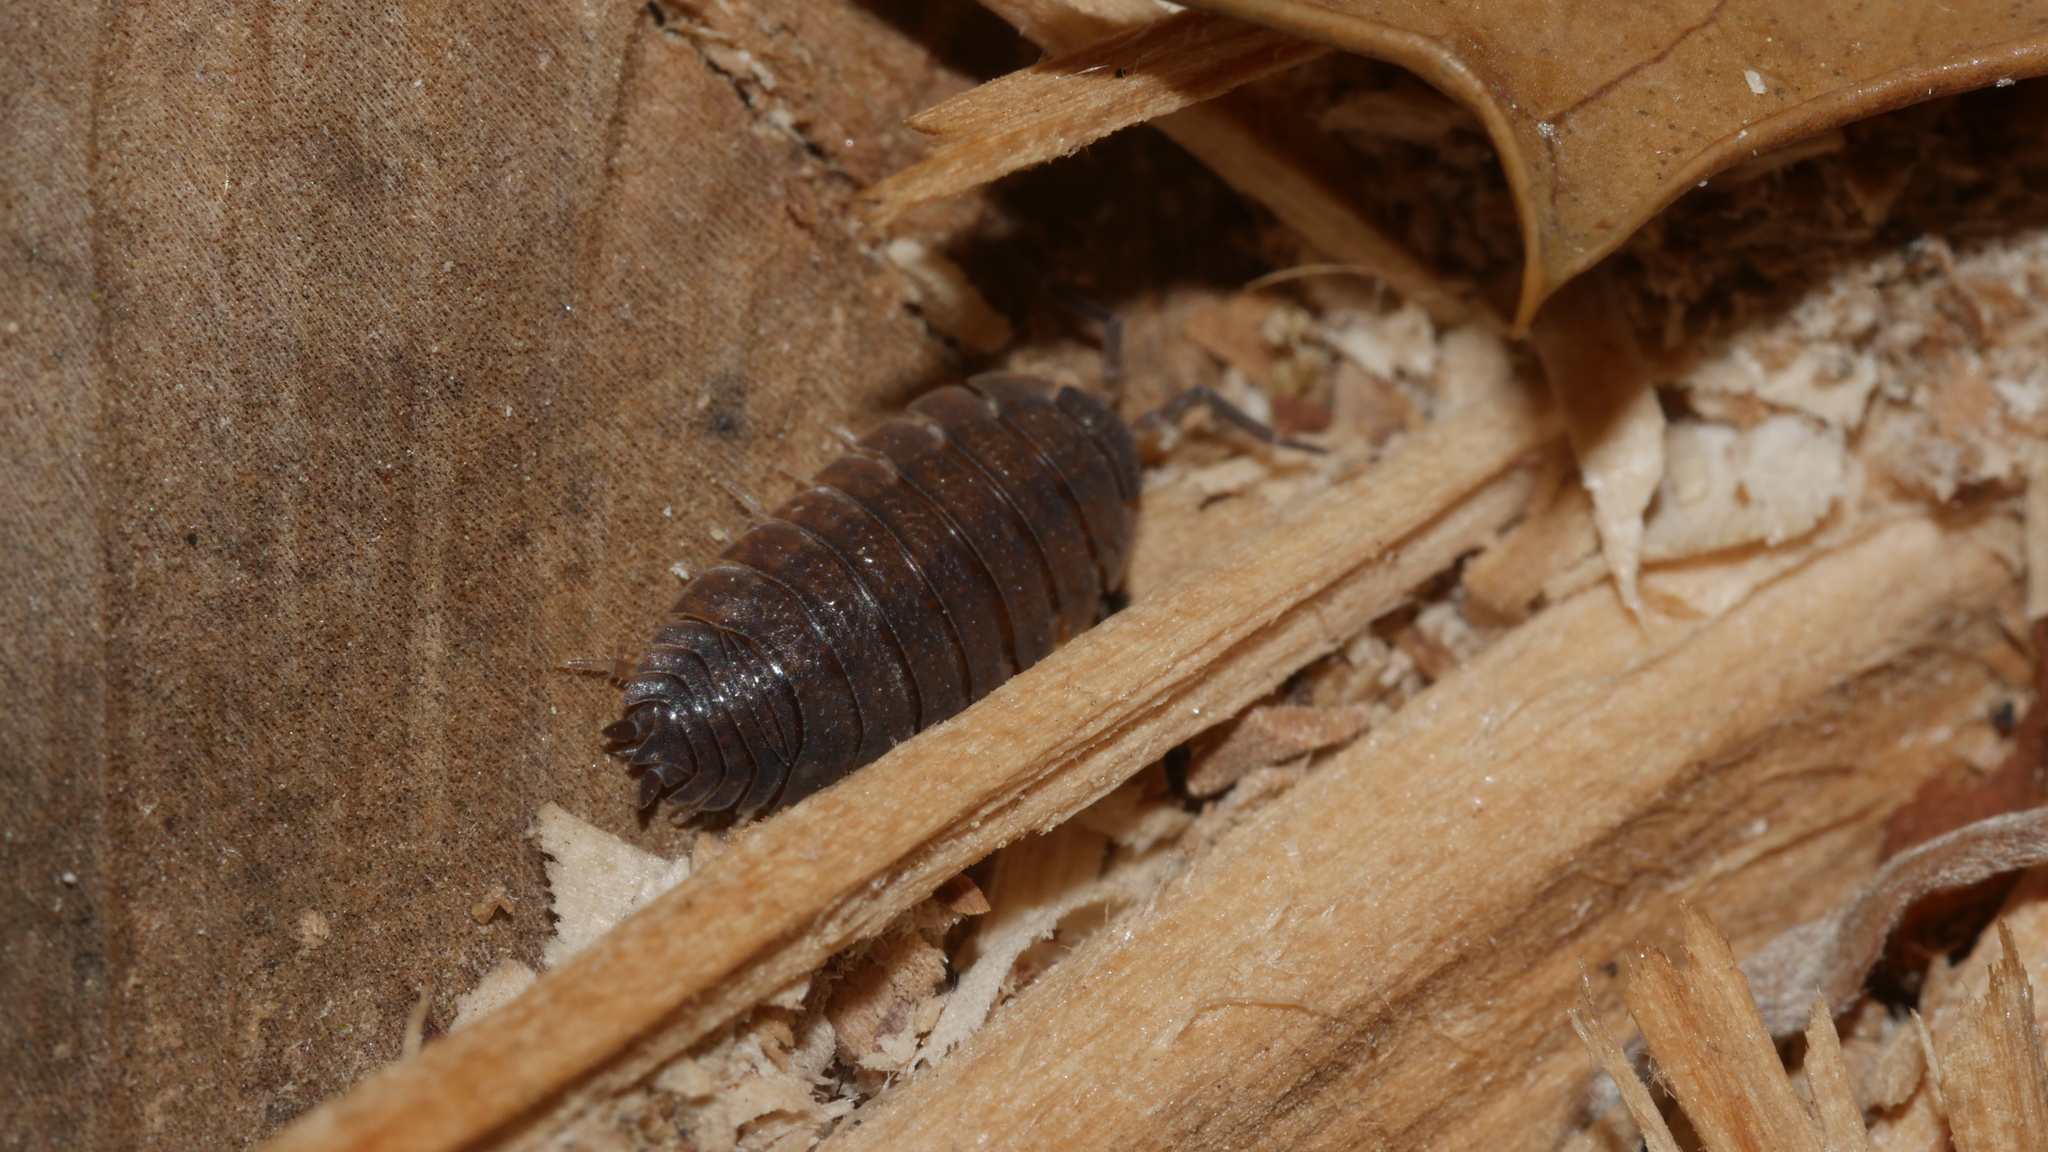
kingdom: Animalia
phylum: Arthropoda
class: Malacostraca
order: Isopoda
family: Porcellionidae
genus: Porcellio
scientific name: Porcellio scaber
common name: Common rough woodlouse
